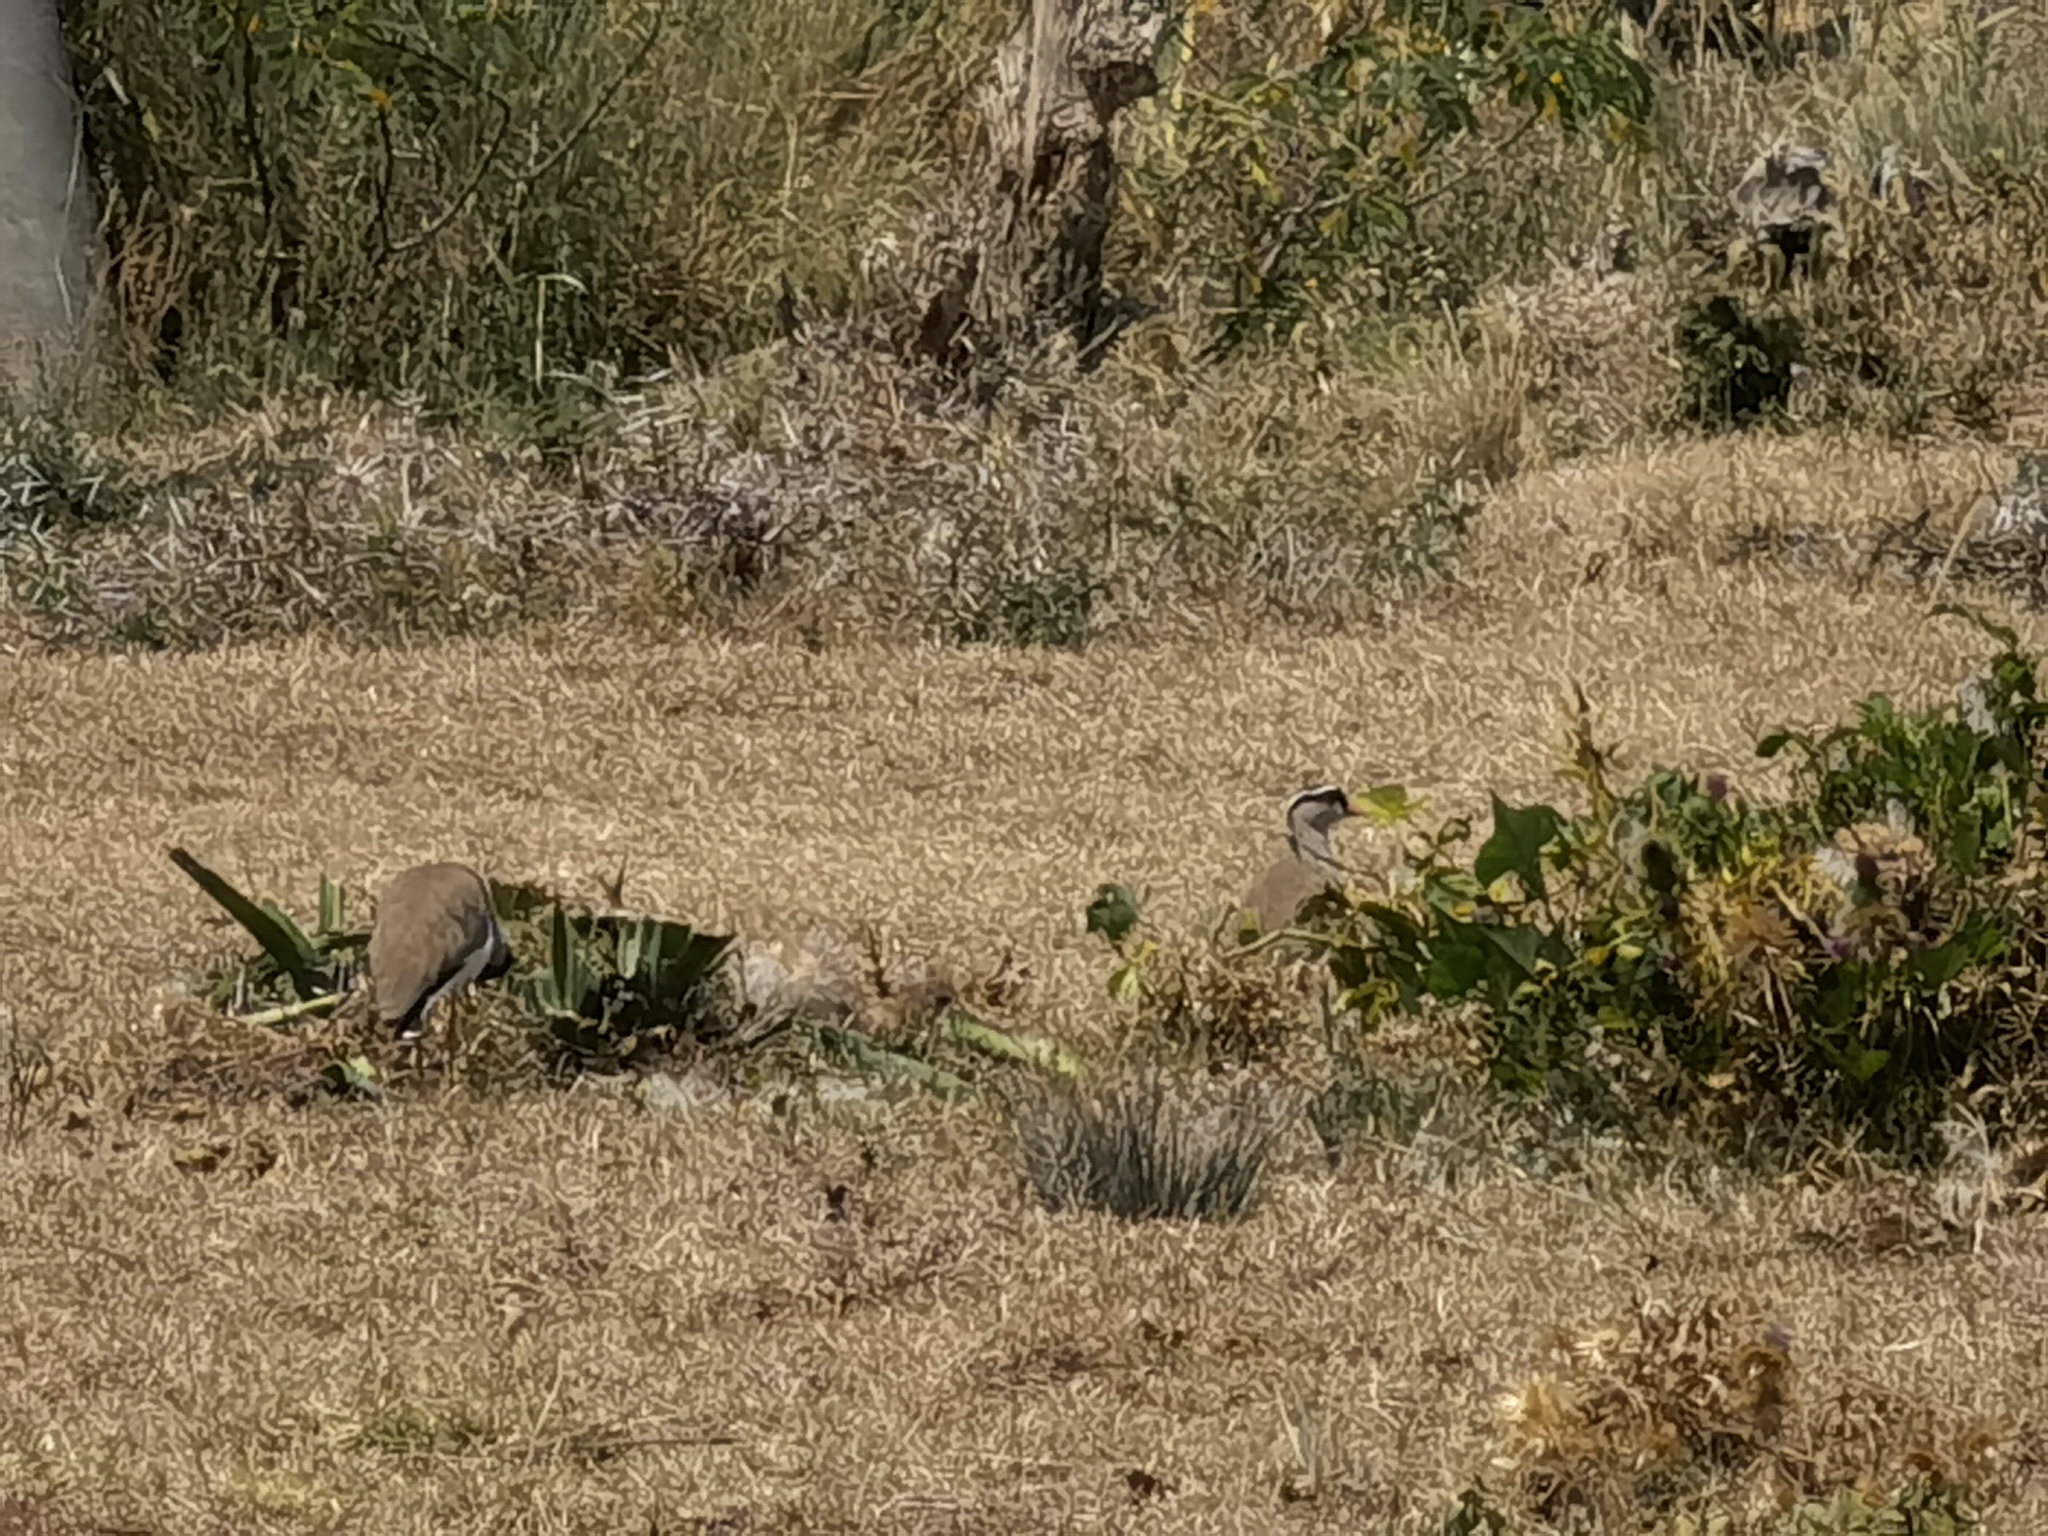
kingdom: Animalia
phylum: Chordata
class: Aves
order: Charadriiformes
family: Charadriidae
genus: Vanellus
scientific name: Vanellus coronatus
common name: Crowned lapwing
